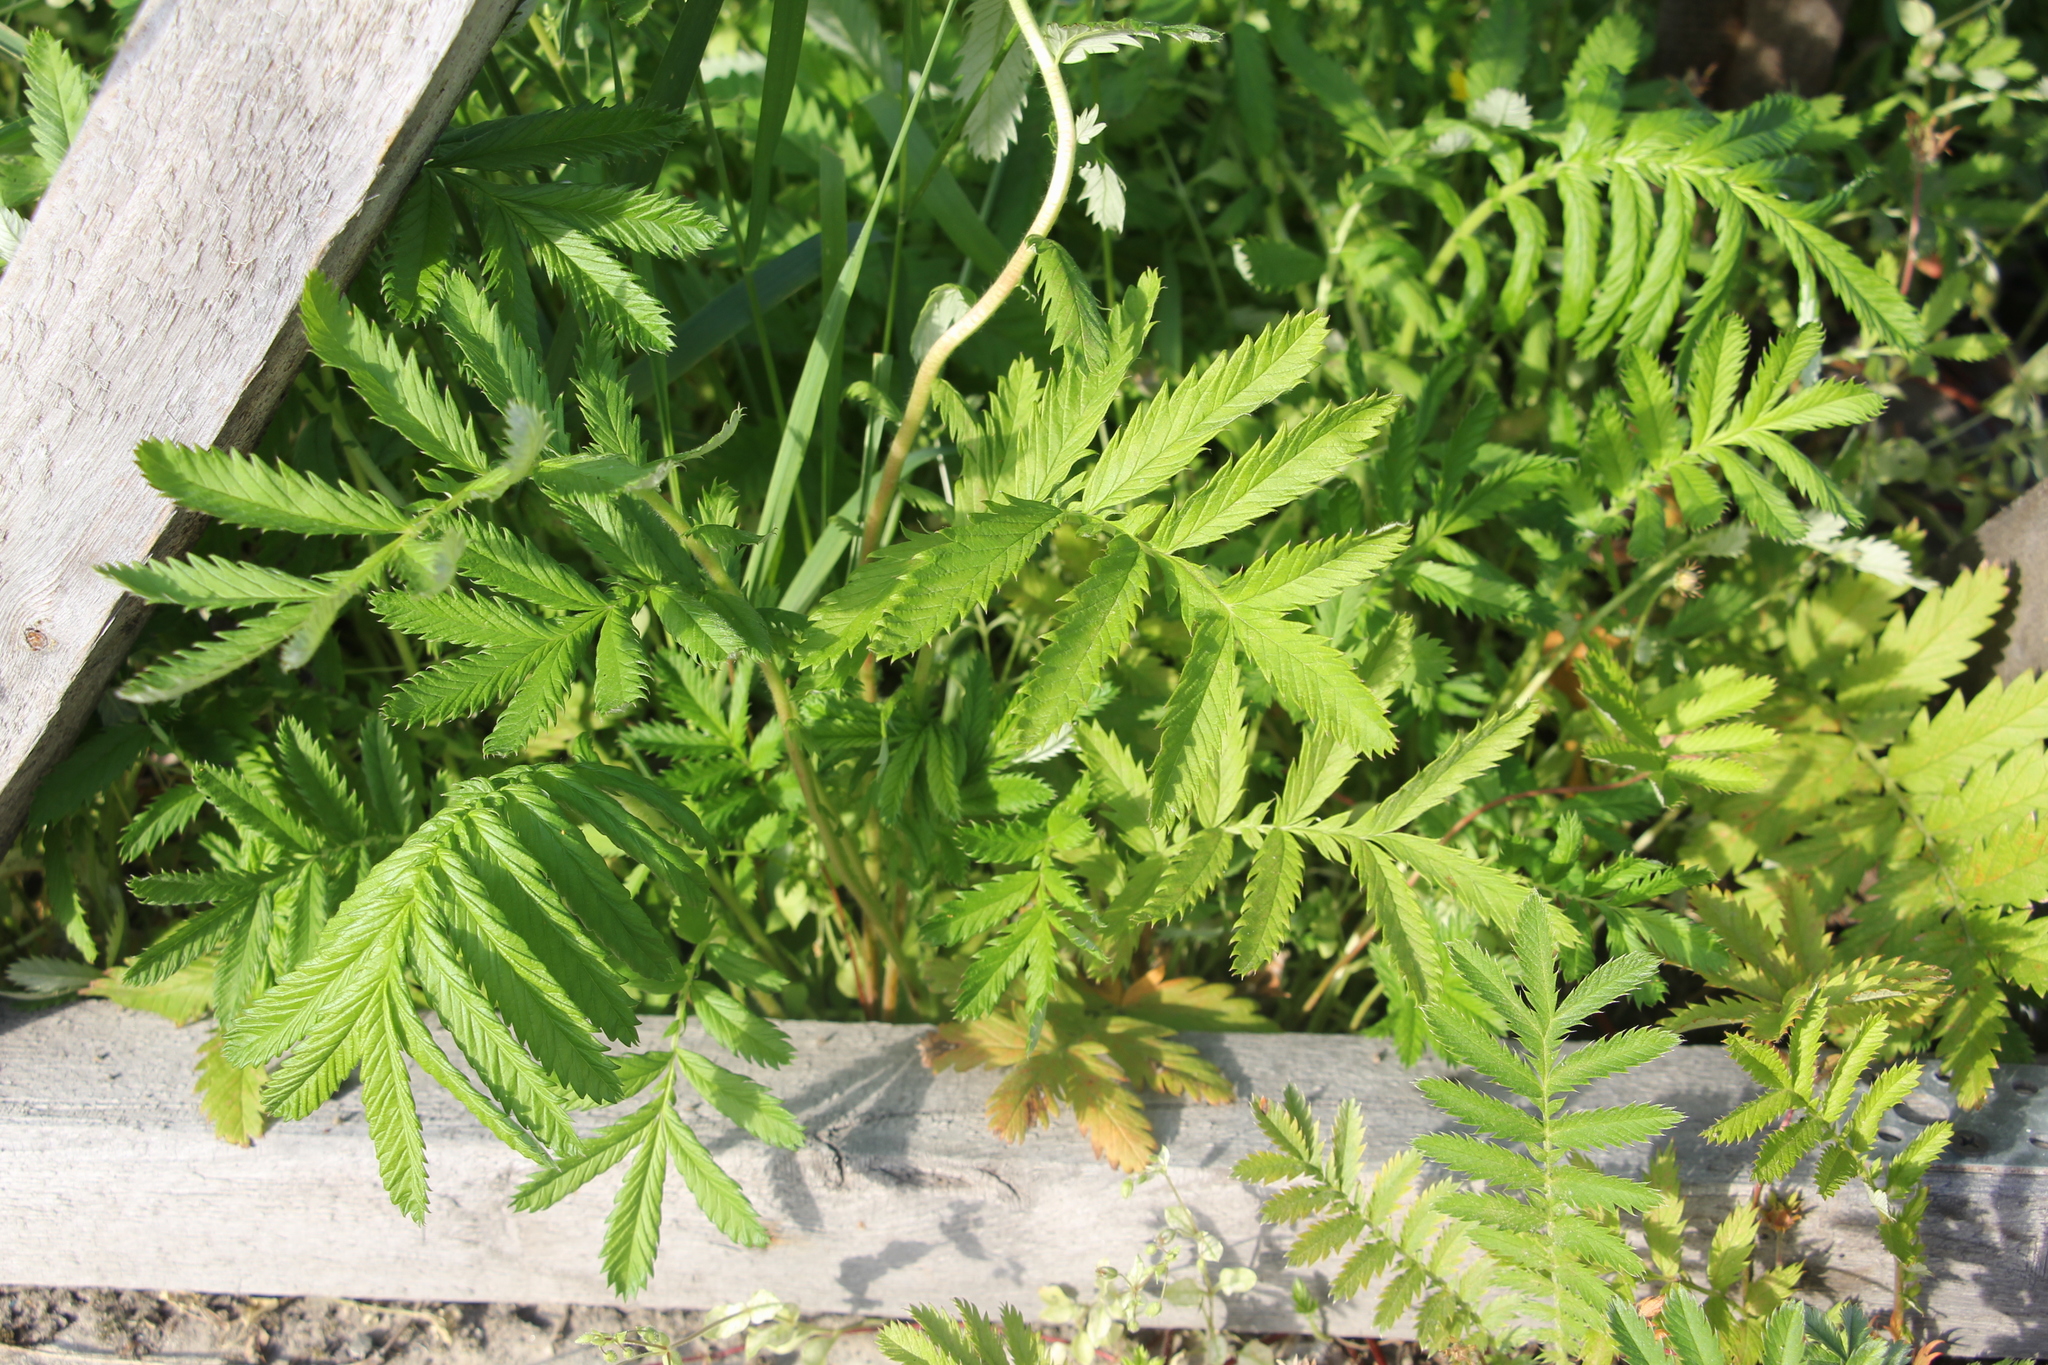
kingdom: Plantae
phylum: Tracheophyta
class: Magnoliopsida
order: Rosales
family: Rosaceae
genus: Argentina
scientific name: Argentina anserina
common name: Common silverweed
